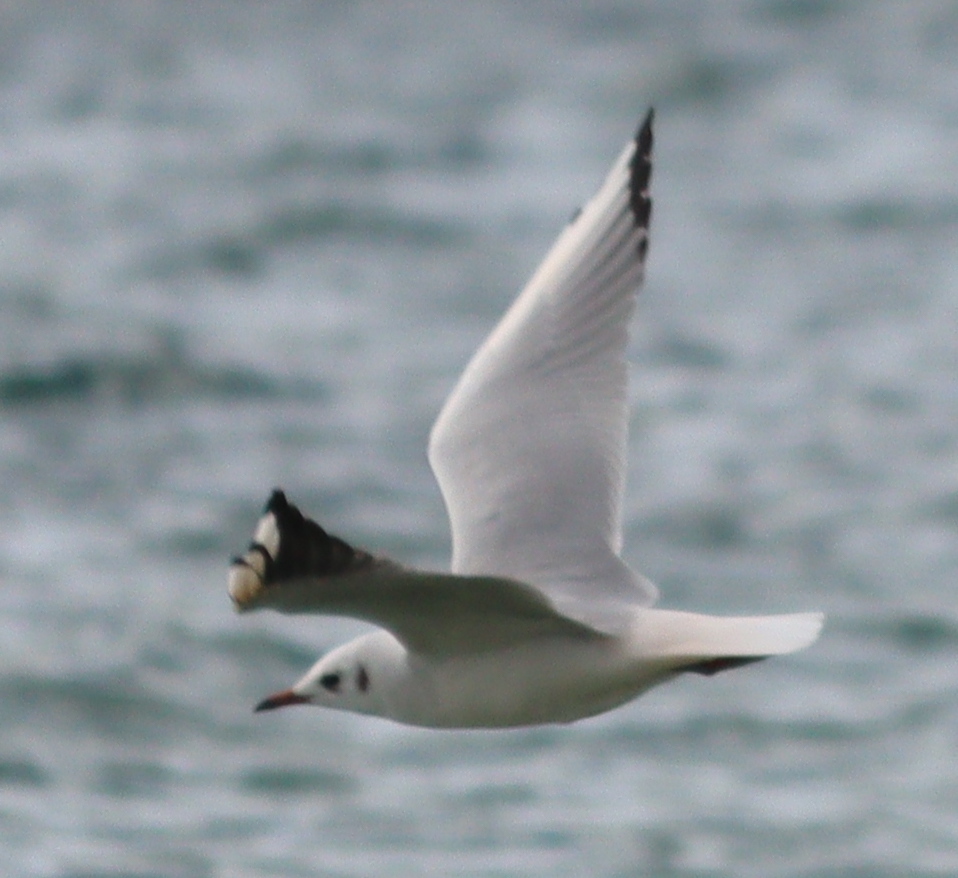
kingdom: Animalia
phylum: Chordata
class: Aves
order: Charadriiformes
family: Laridae
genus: Chroicocephalus
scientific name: Chroicocephalus ridibundus
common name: Black-headed gull
